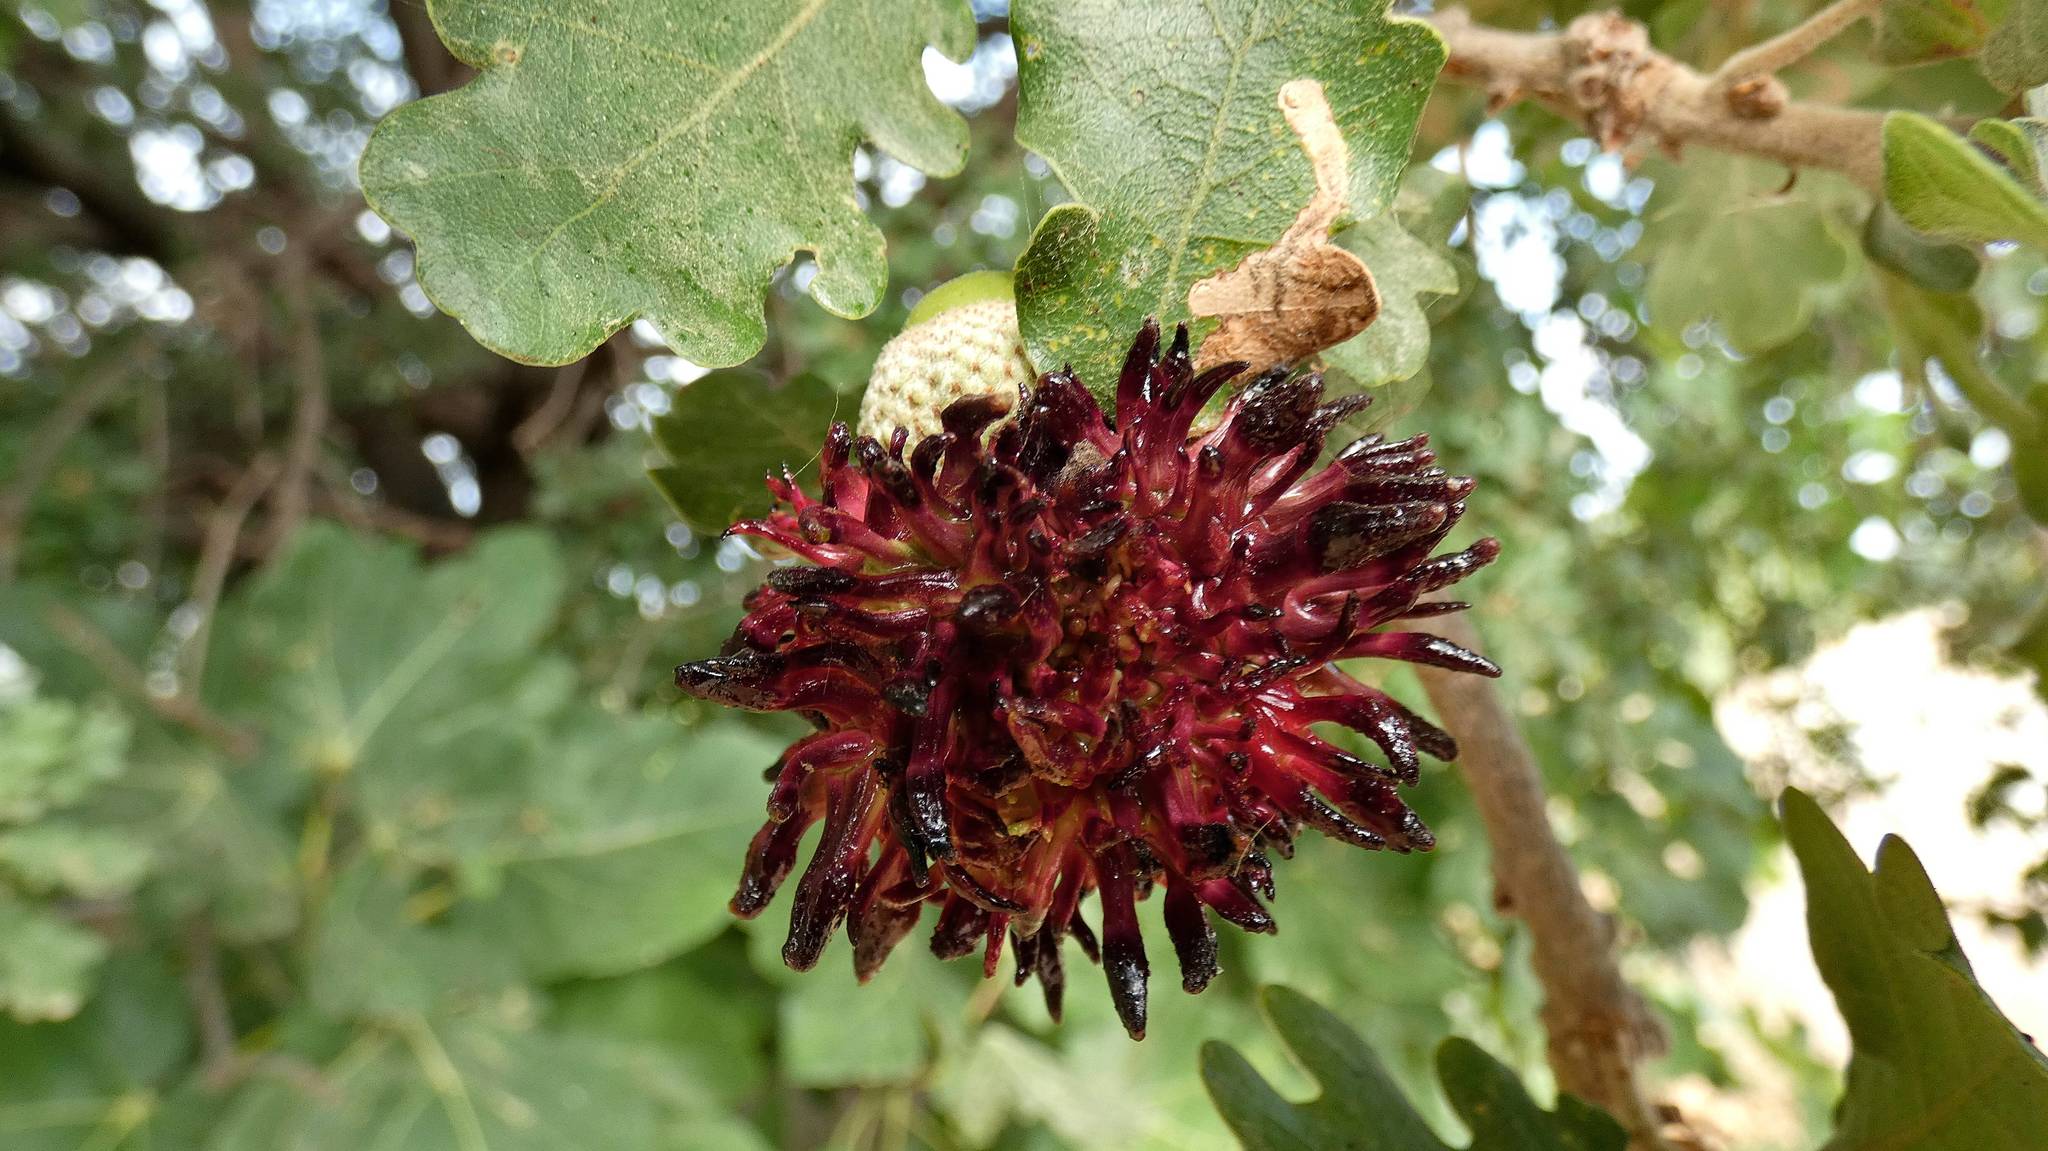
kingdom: Animalia
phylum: Arthropoda
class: Insecta
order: Hymenoptera
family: Cynipidae
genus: Andricus
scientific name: Andricus grossulariae
